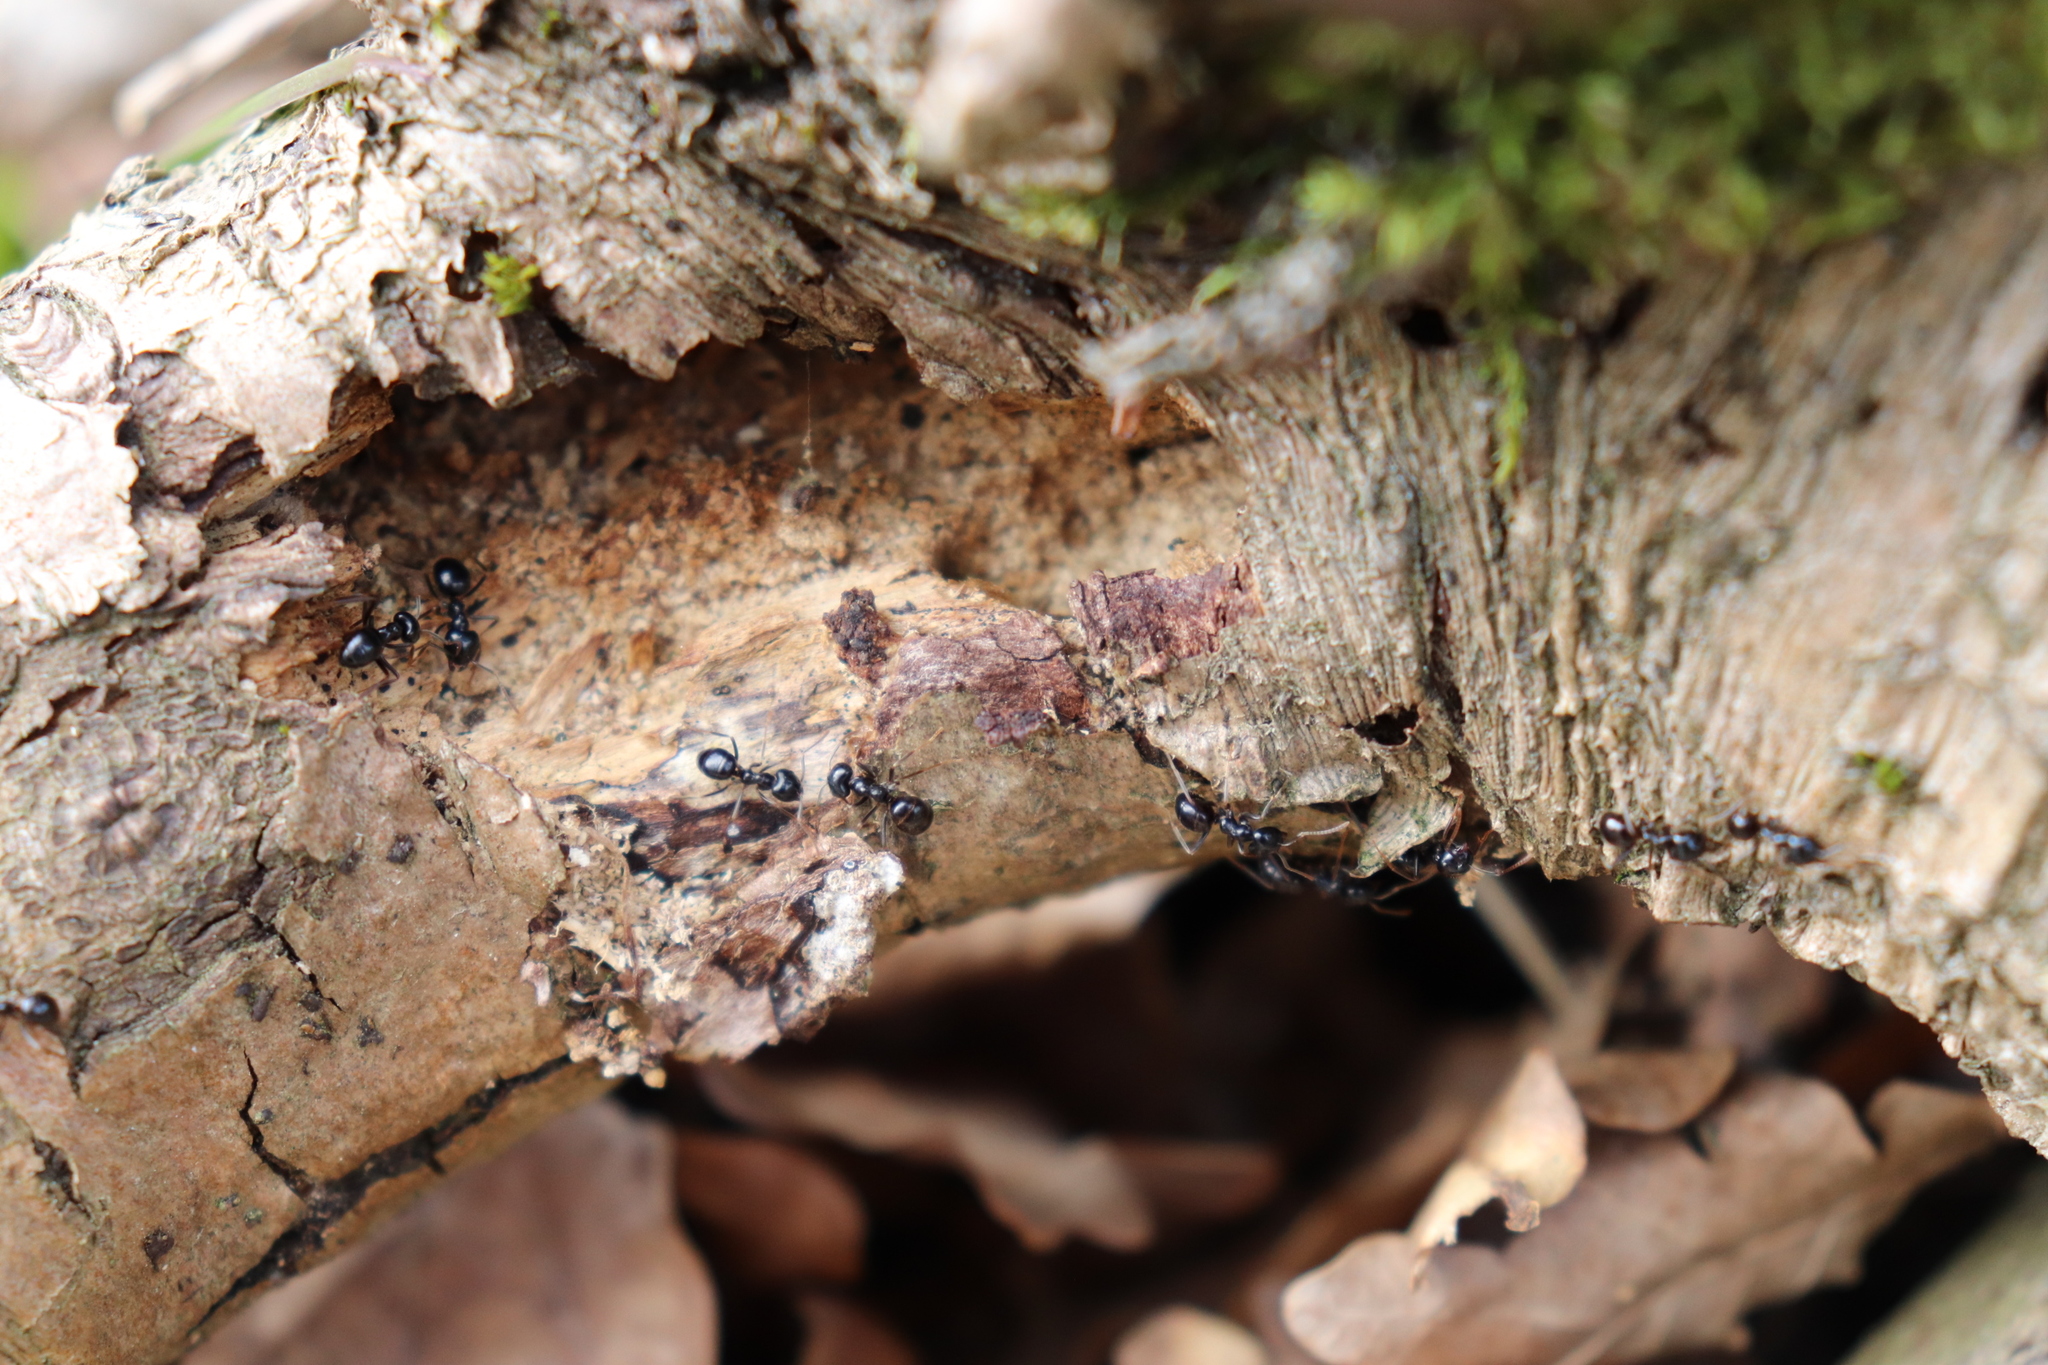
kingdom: Animalia
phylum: Arthropoda
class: Insecta
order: Hymenoptera
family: Formicidae
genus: Lasius
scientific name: Lasius fuliginosus
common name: Jet ant
